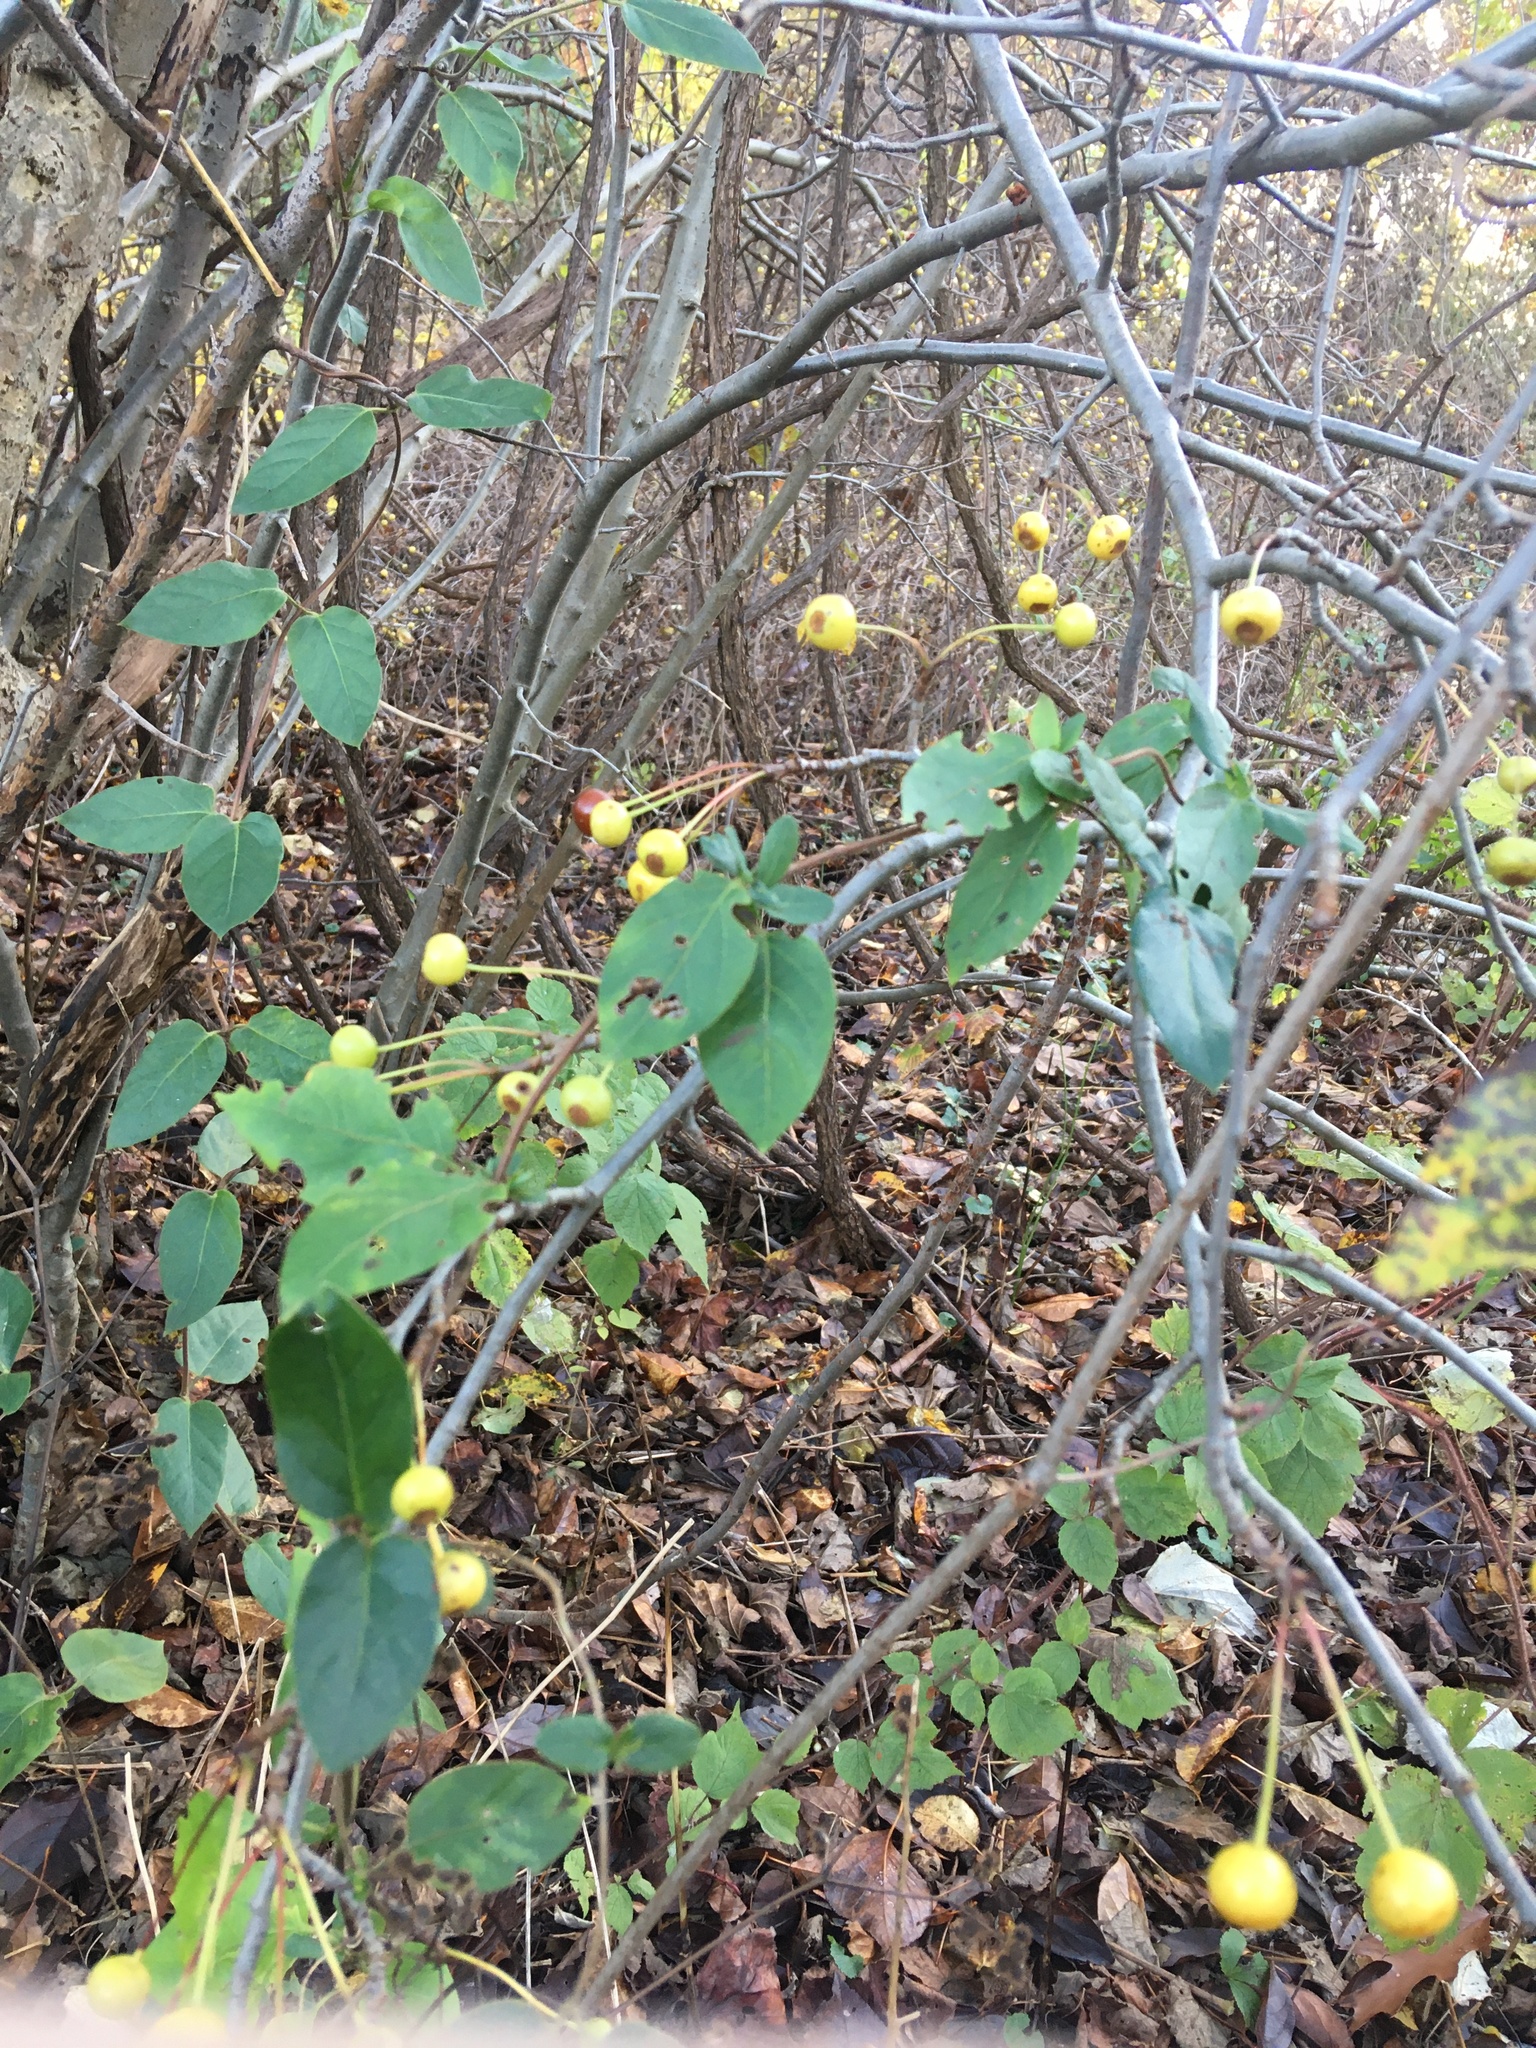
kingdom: Plantae
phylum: Tracheophyta
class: Magnoliopsida
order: Rosales
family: Rosaceae
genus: Malus
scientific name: Malus hupehensis
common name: Chinese crab apple
